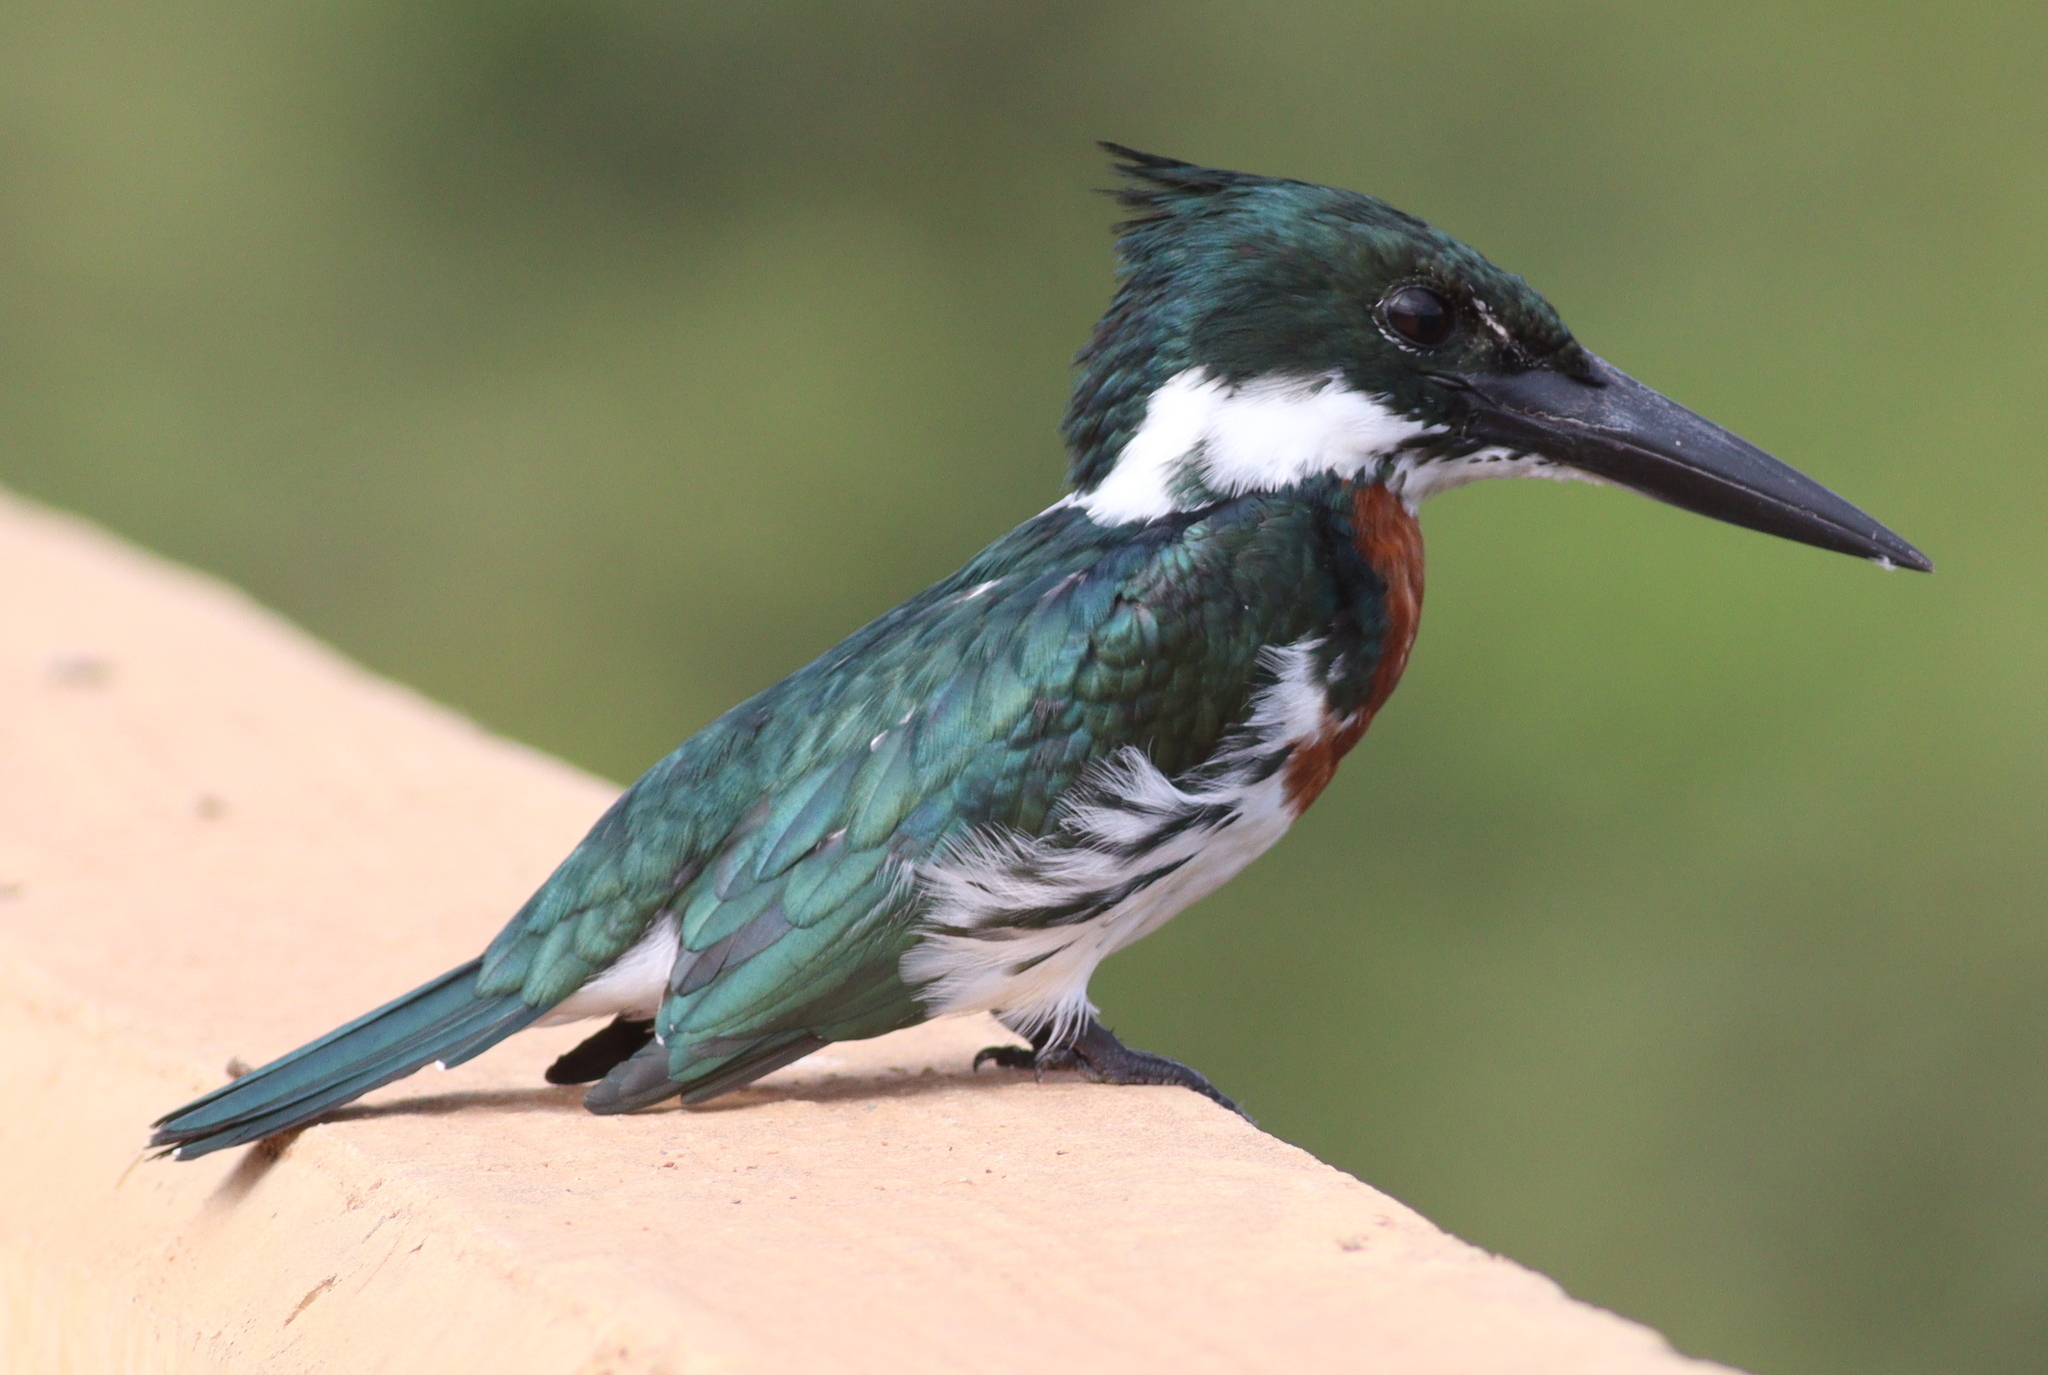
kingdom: Animalia
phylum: Chordata
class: Aves
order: Coraciiformes
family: Alcedinidae
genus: Chloroceryle
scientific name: Chloroceryle amazona
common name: Amazon kingfisher
